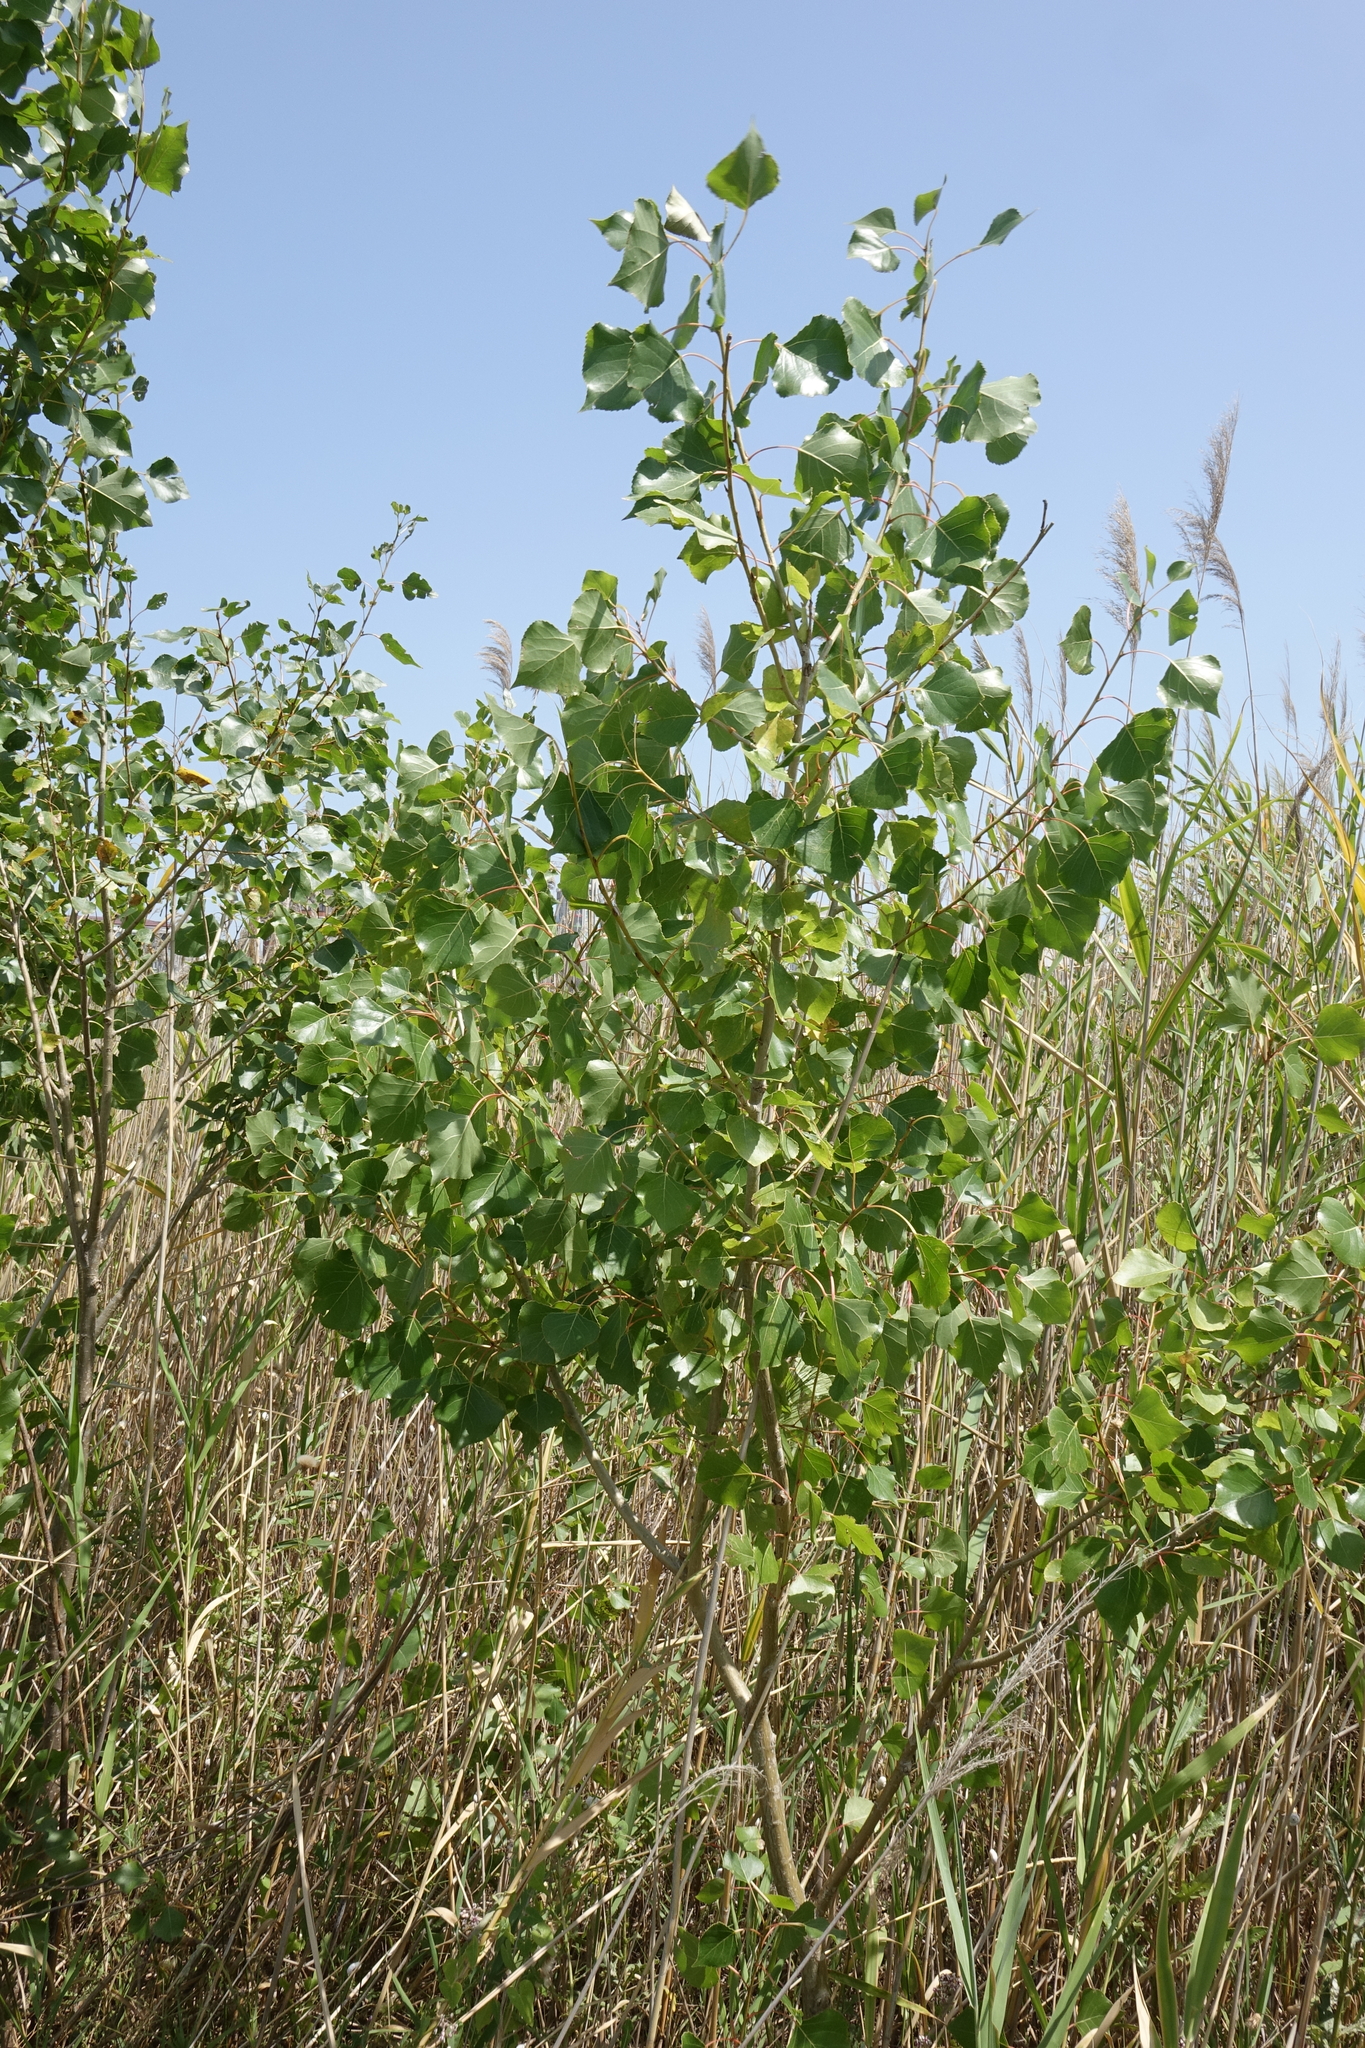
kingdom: Plantae
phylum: Tracheophyta
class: Magnoliopsida
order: Malpighiales
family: Salicaceae
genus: Populus
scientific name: Populus nigra
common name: Black poplar
